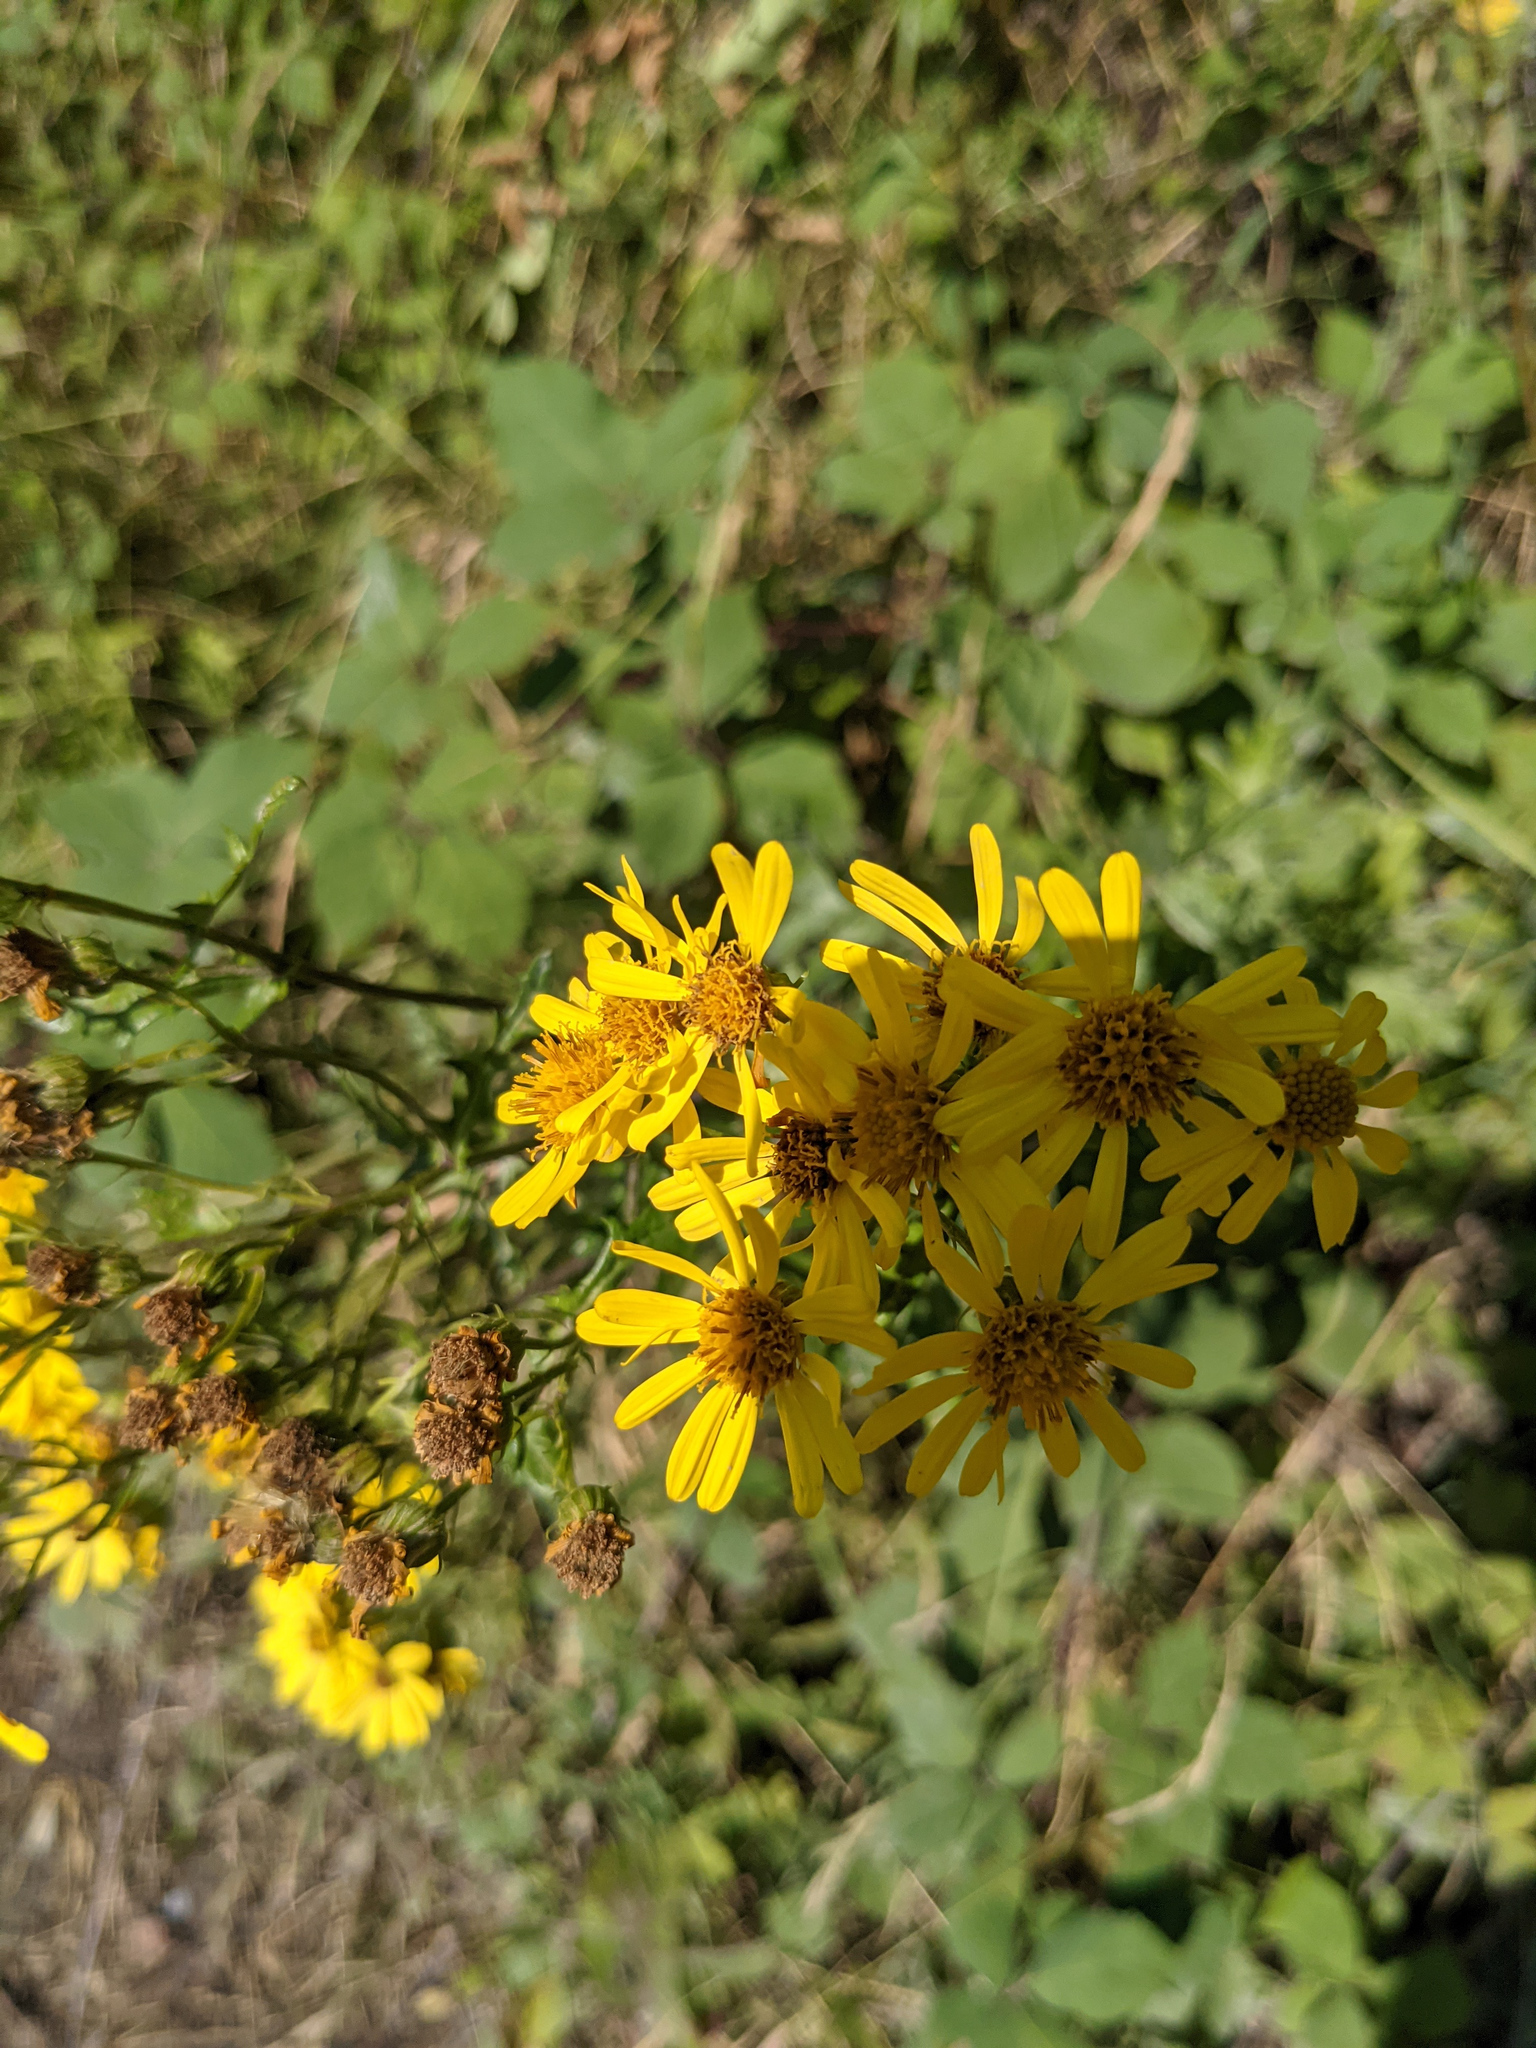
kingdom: Plantae
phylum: Tracheophyta
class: Magnoliopsida
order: Asterales
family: Asteraceae
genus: Jacobaea
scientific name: Jacobaea erucifolia
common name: Hoary ragwort
